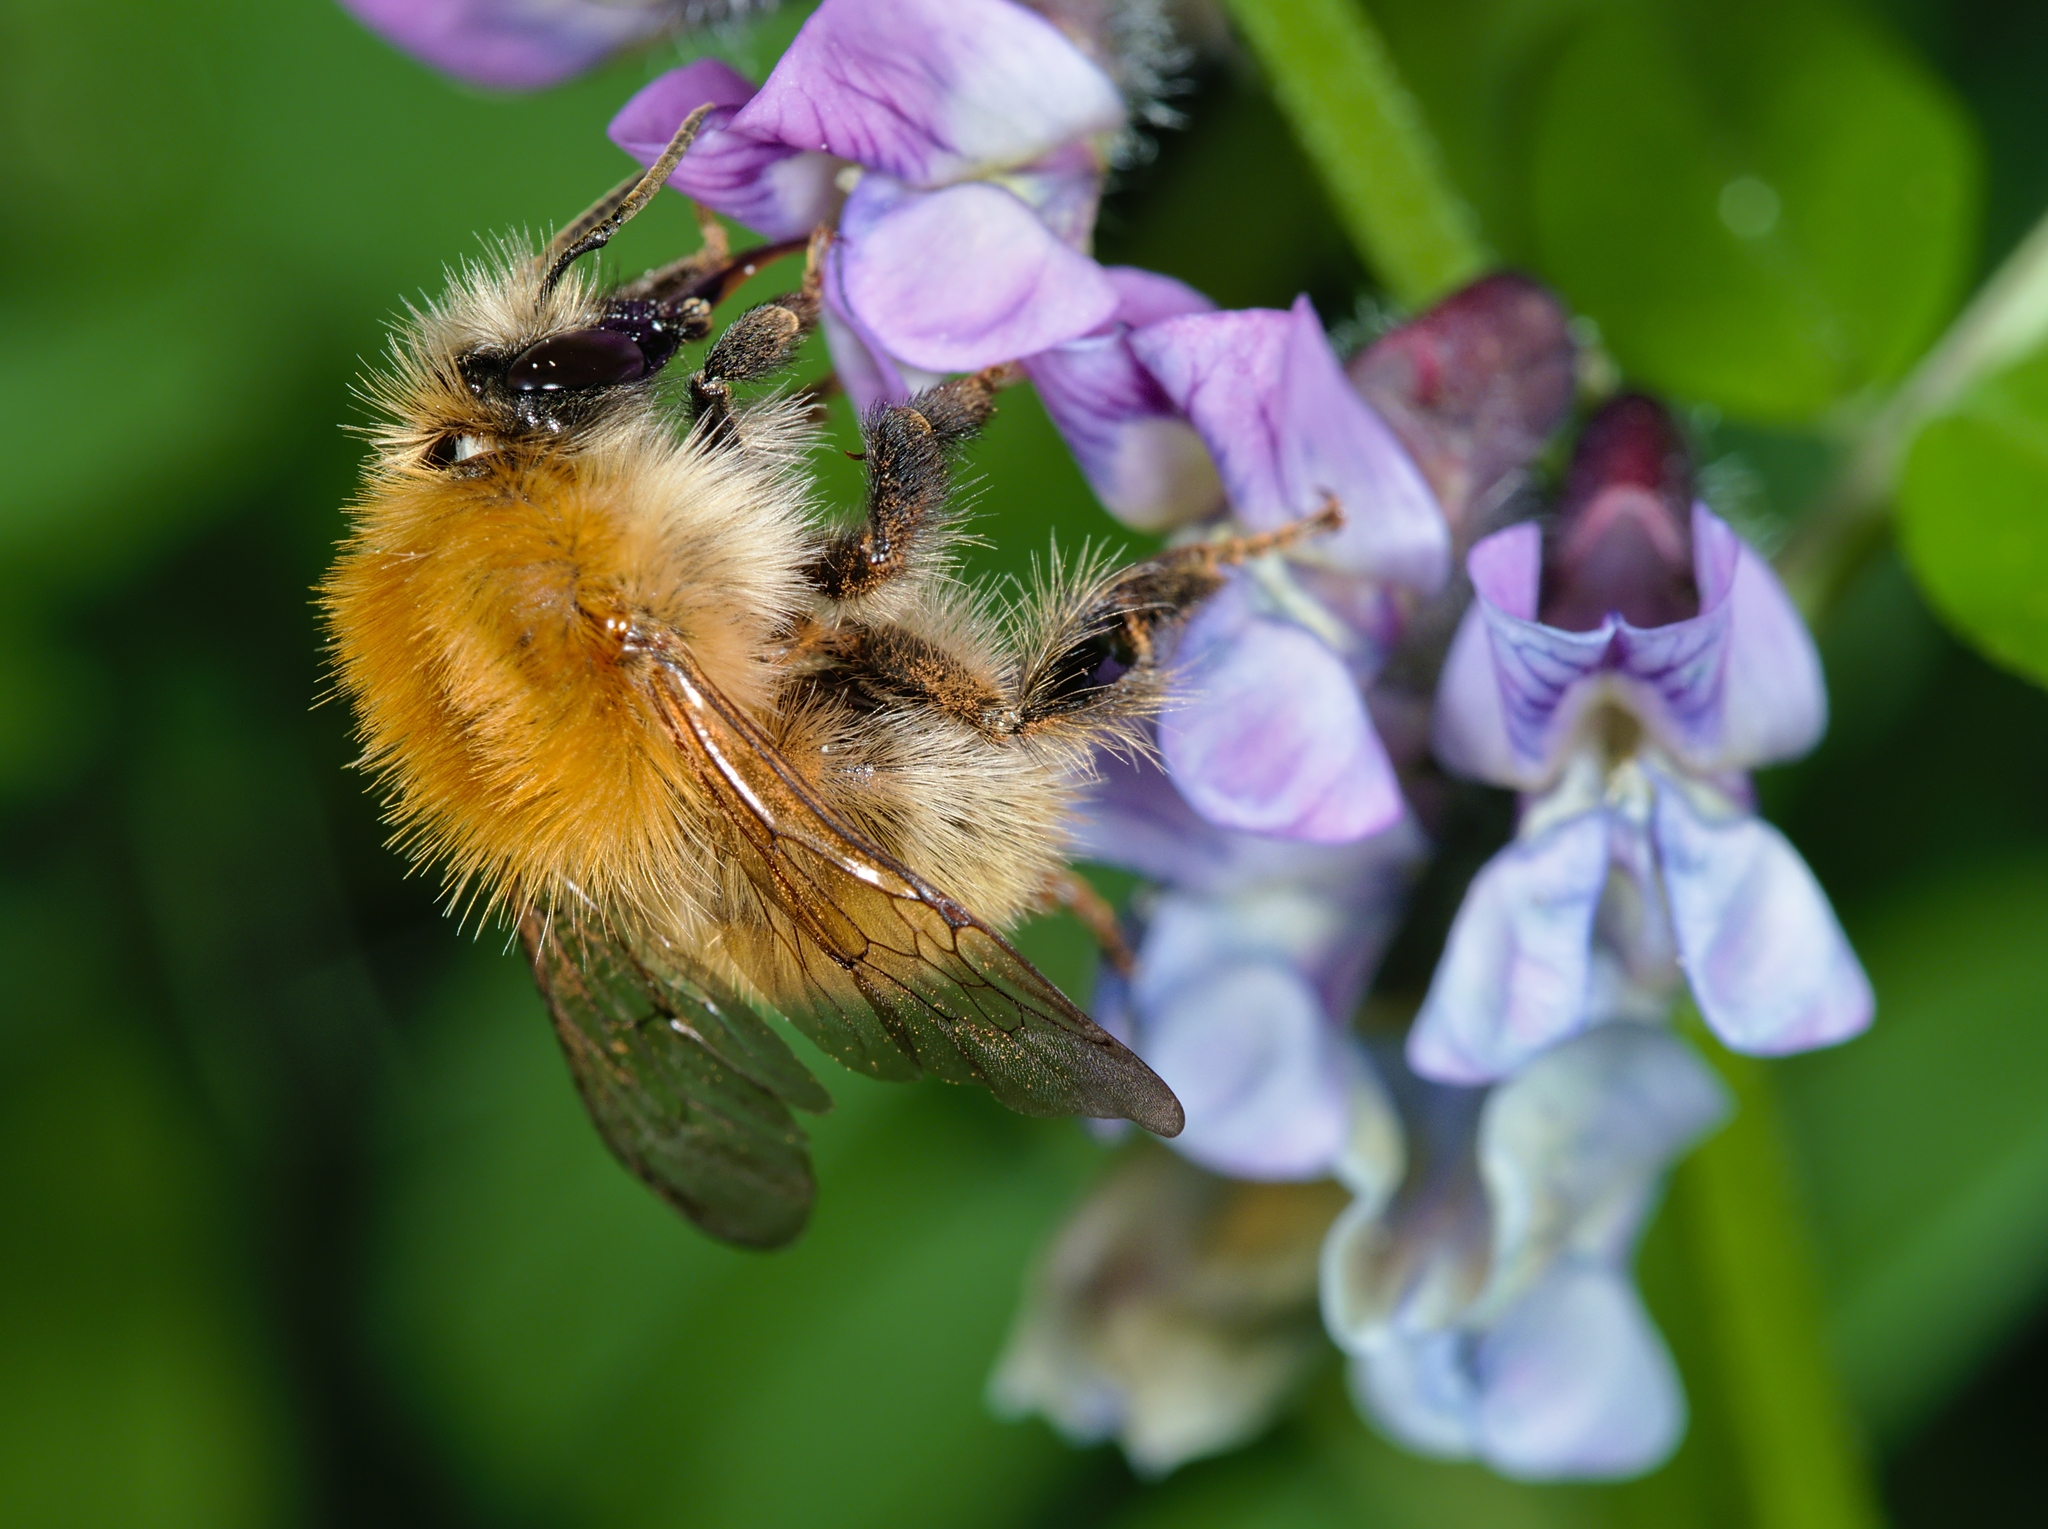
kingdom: Animalia
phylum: Arthropoda
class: Insecta
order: Hymenoptera
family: Apidae
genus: Bombus
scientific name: Bombus pascuorum
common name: Common carder bee
